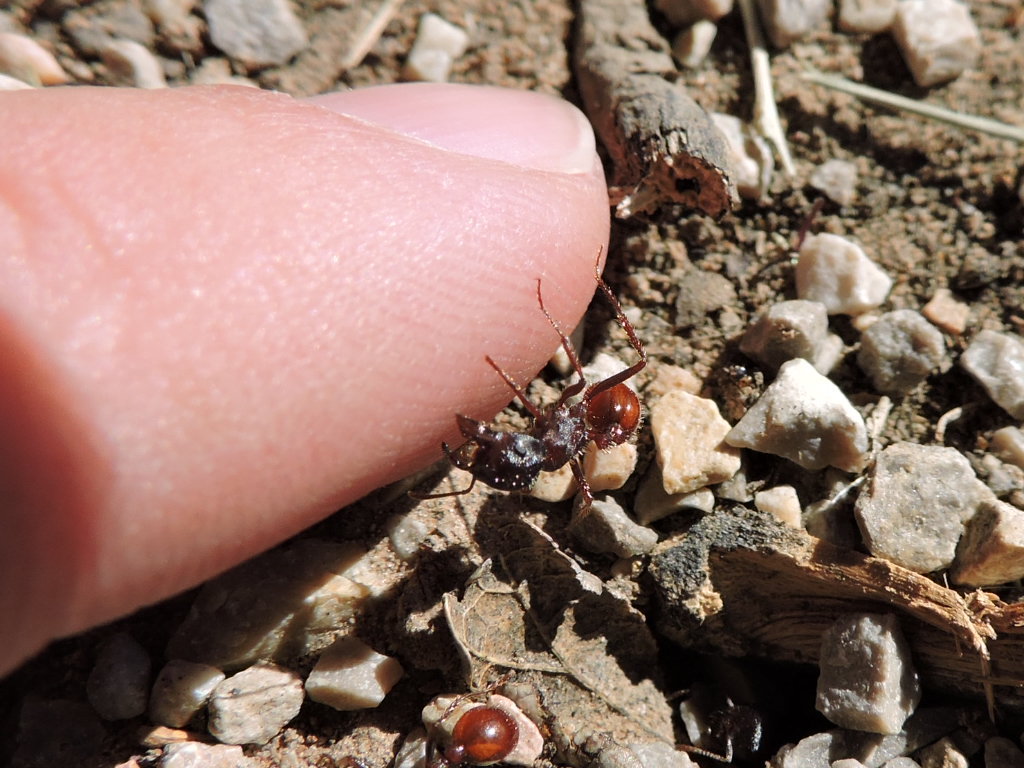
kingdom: Animalia
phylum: Arthropoda
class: Insecta
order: Hymenoptera
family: Formicidae
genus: Pogonomyrmex
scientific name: Pogonomyrmex rugosus
